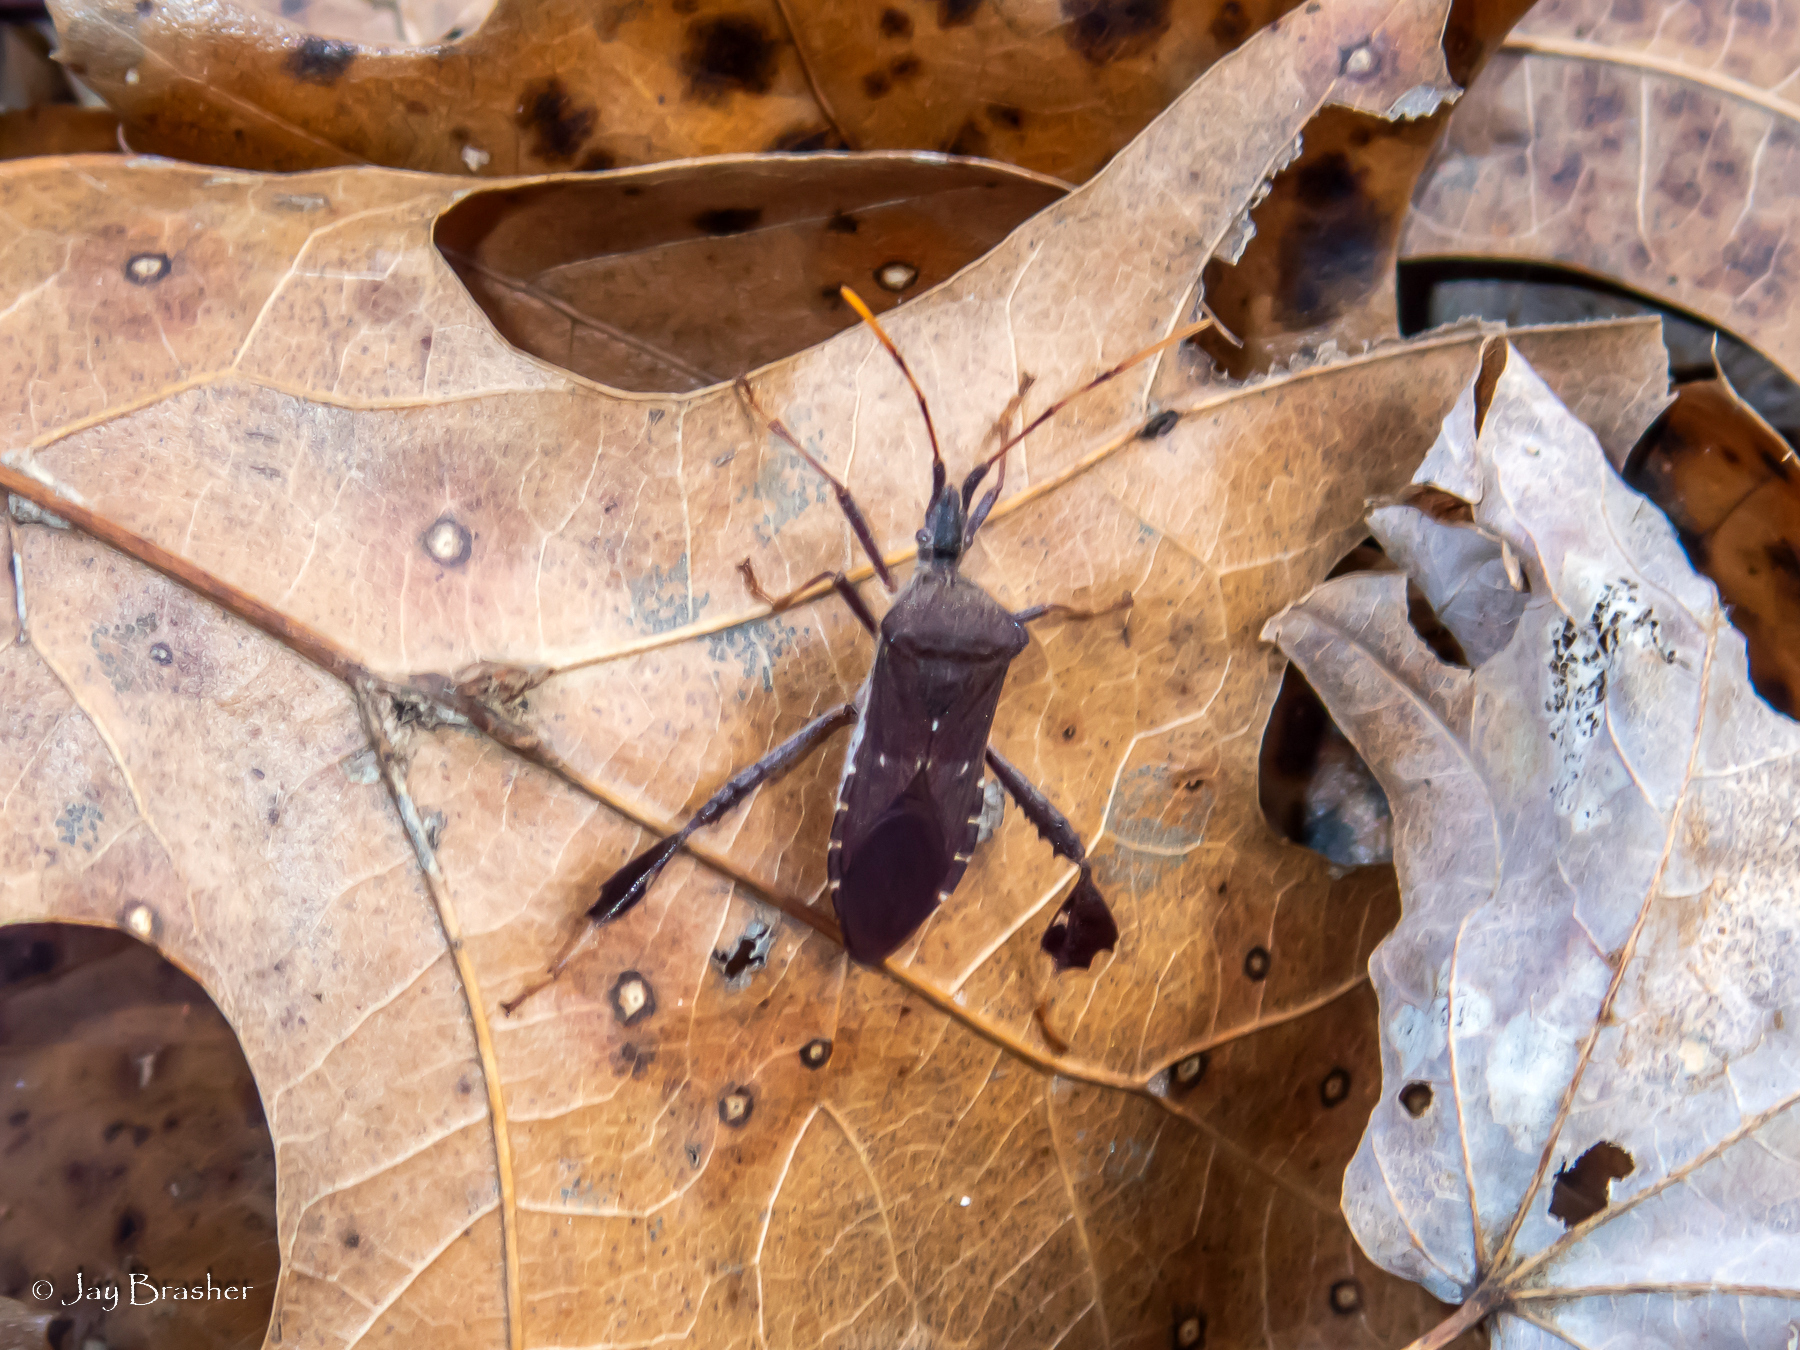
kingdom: Animalia
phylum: Arthropoda
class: Insecta
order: Hemiptera
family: Coreidae
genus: Leptoglossus
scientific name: Leptoglossus oppositus
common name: Northern leaf-footed bug
